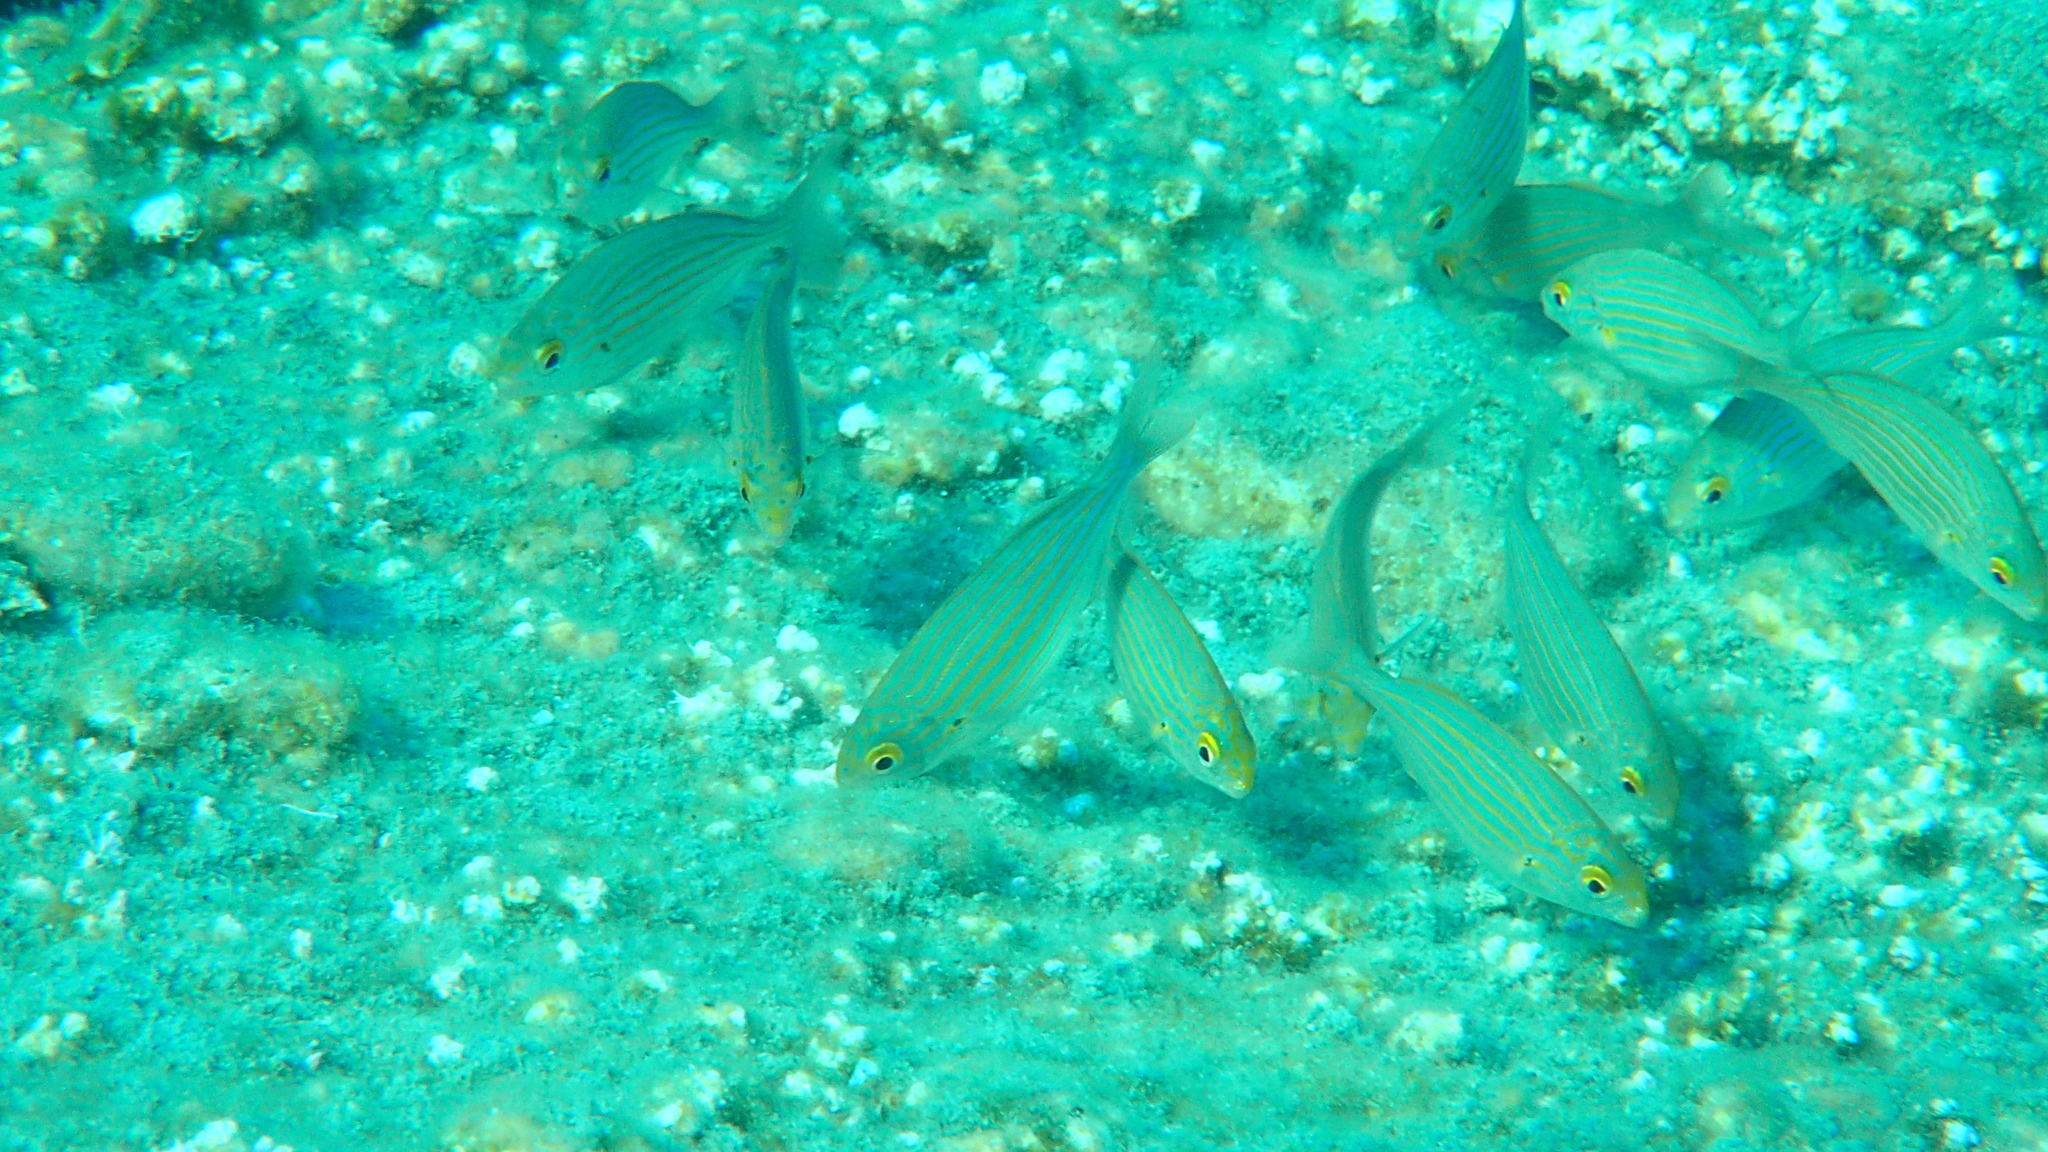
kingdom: Animalia
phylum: Chordata
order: Perciformes
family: Sparidae
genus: Sarpa
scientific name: Sarpa salpa
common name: Salema
